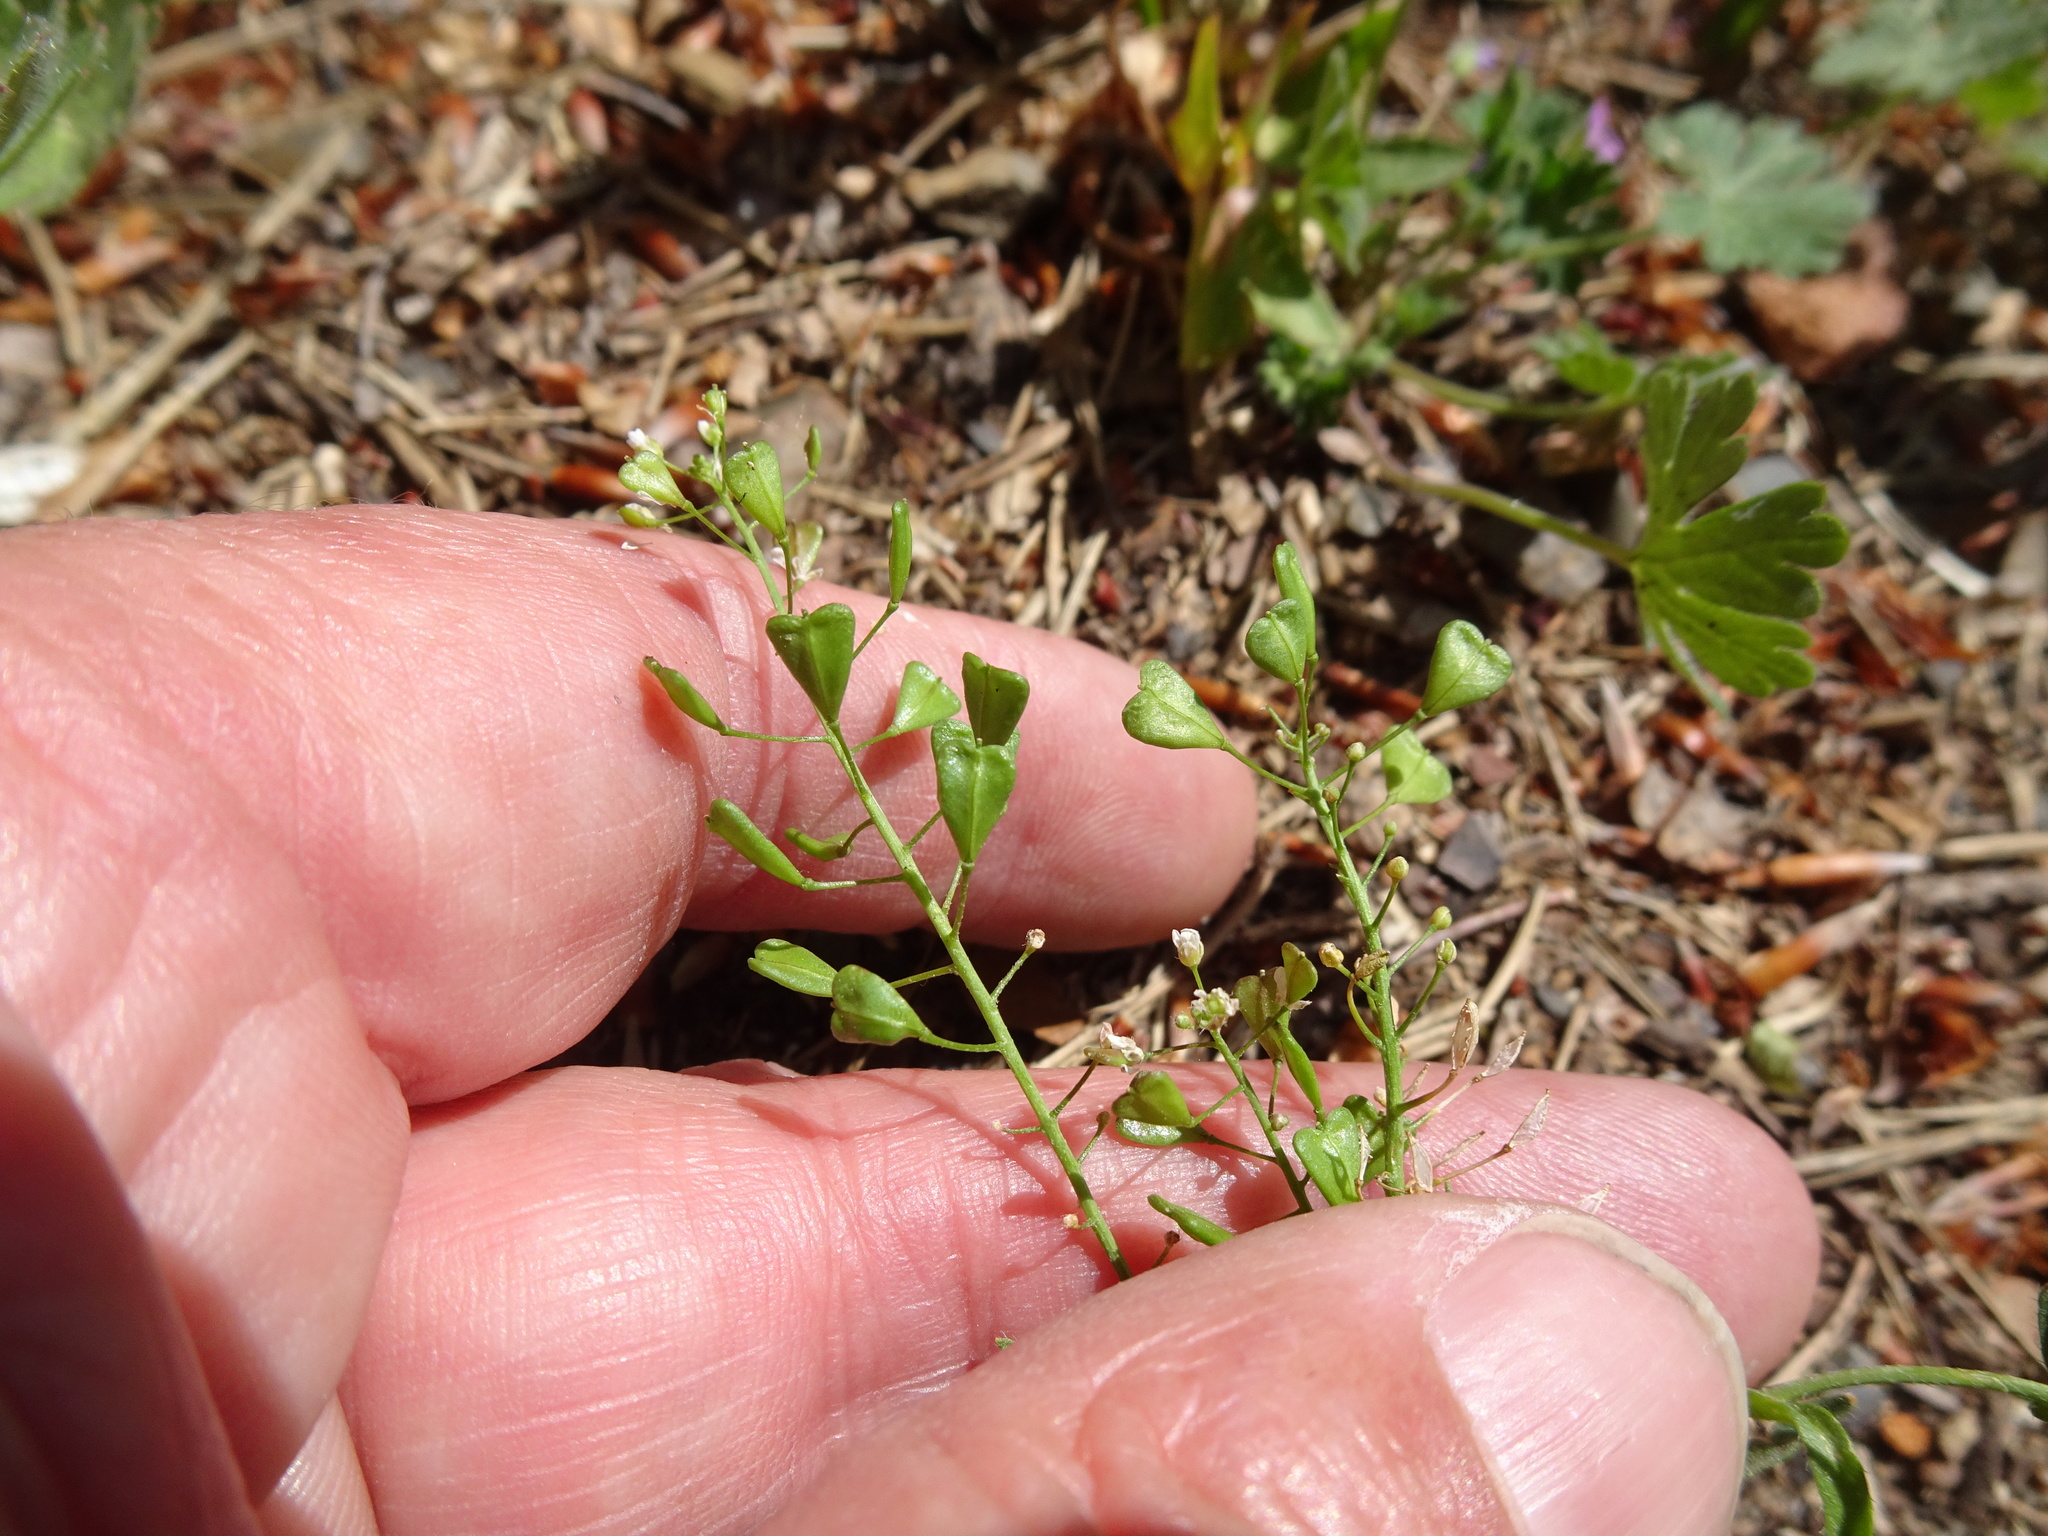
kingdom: Plantae
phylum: Tracheophyta
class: Magnoliopsida
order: Brassicales
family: Brassicaceae
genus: Capsella
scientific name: Capsella bursa-pastoris
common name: Shepherd's purse
